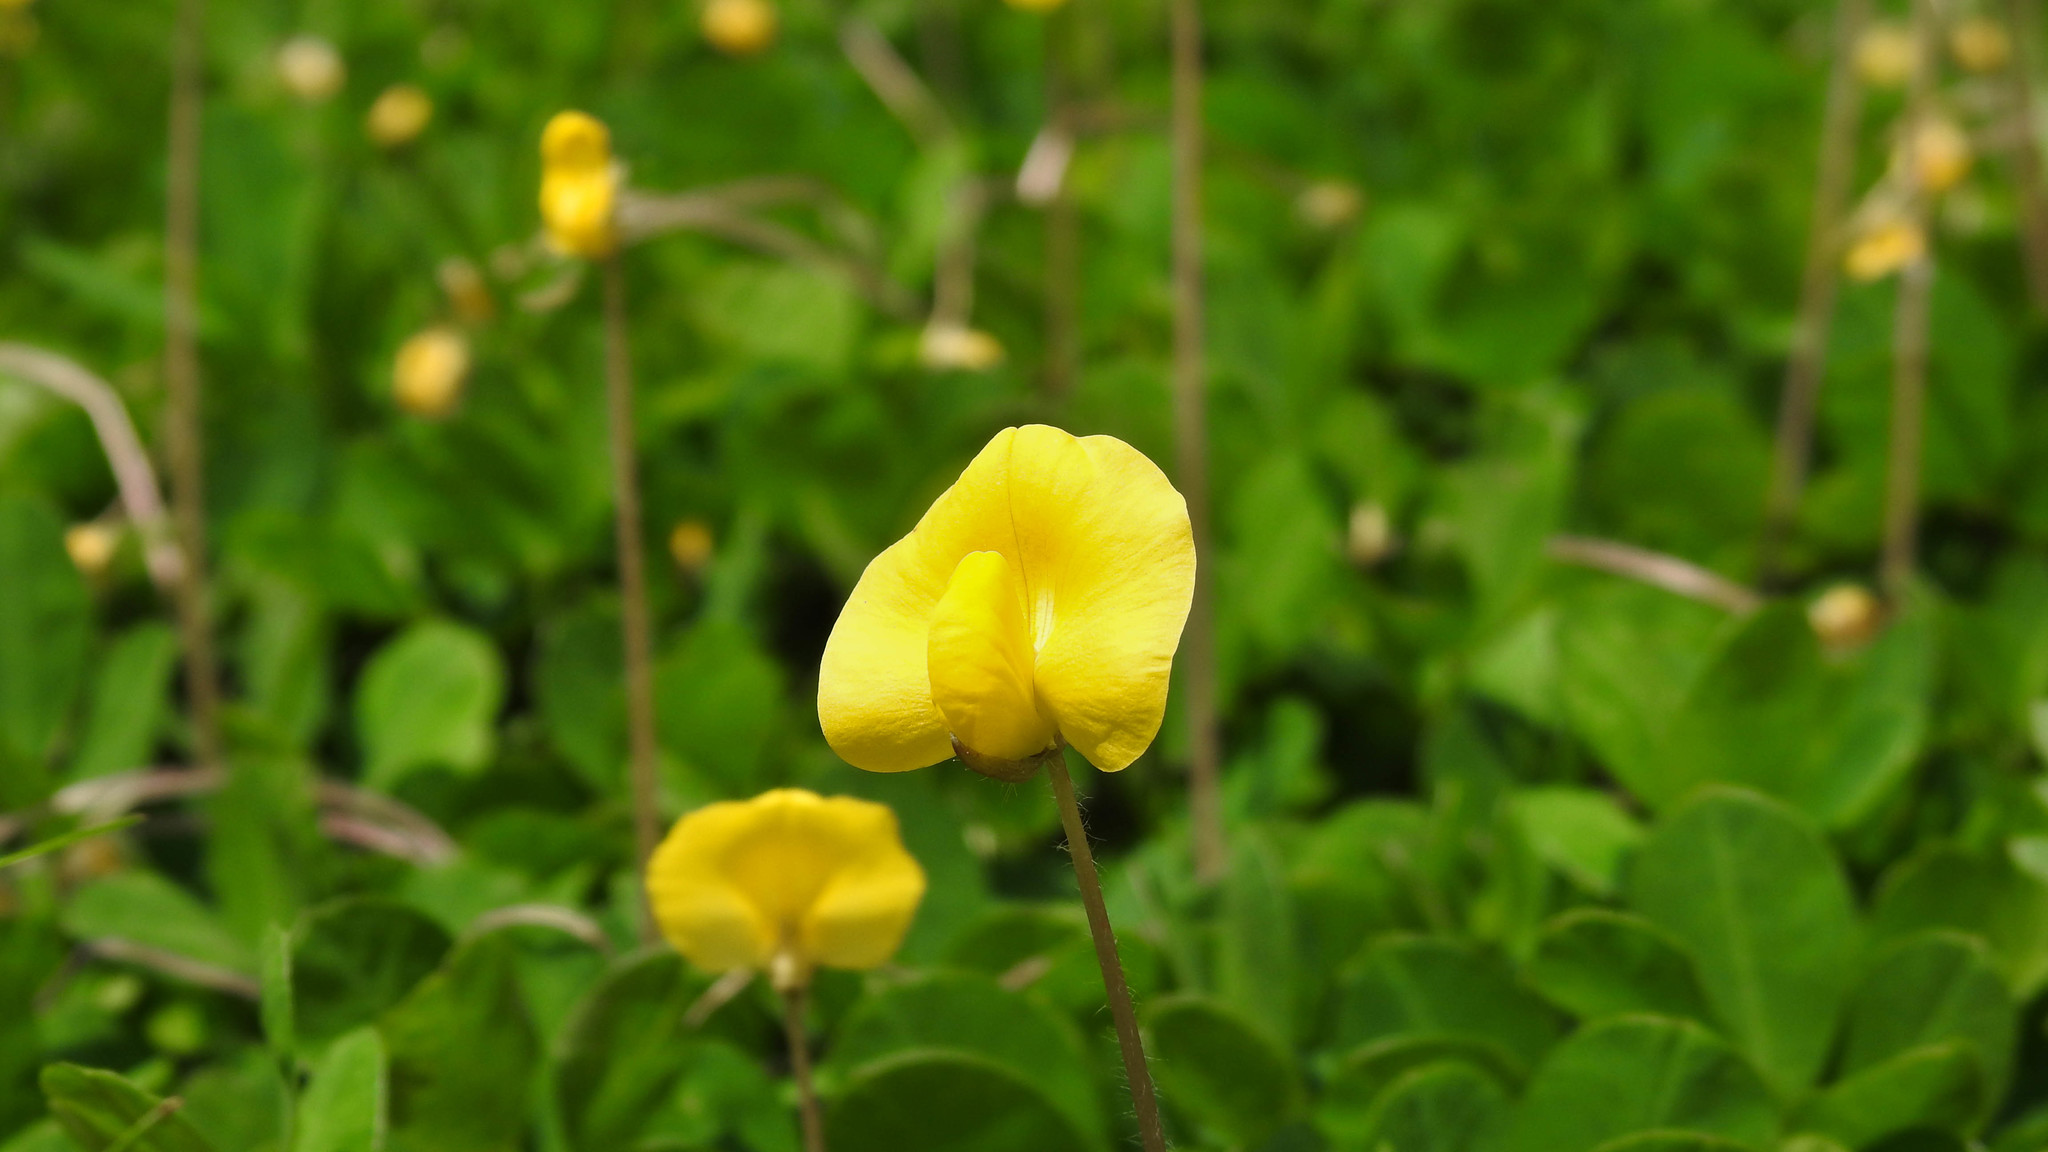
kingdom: Plantae
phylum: Tracheophyta
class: Magnoliopsida
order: Fabales
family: Fabaceae
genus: Arachis
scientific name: Arachis pintoi
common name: Pinto peanut
